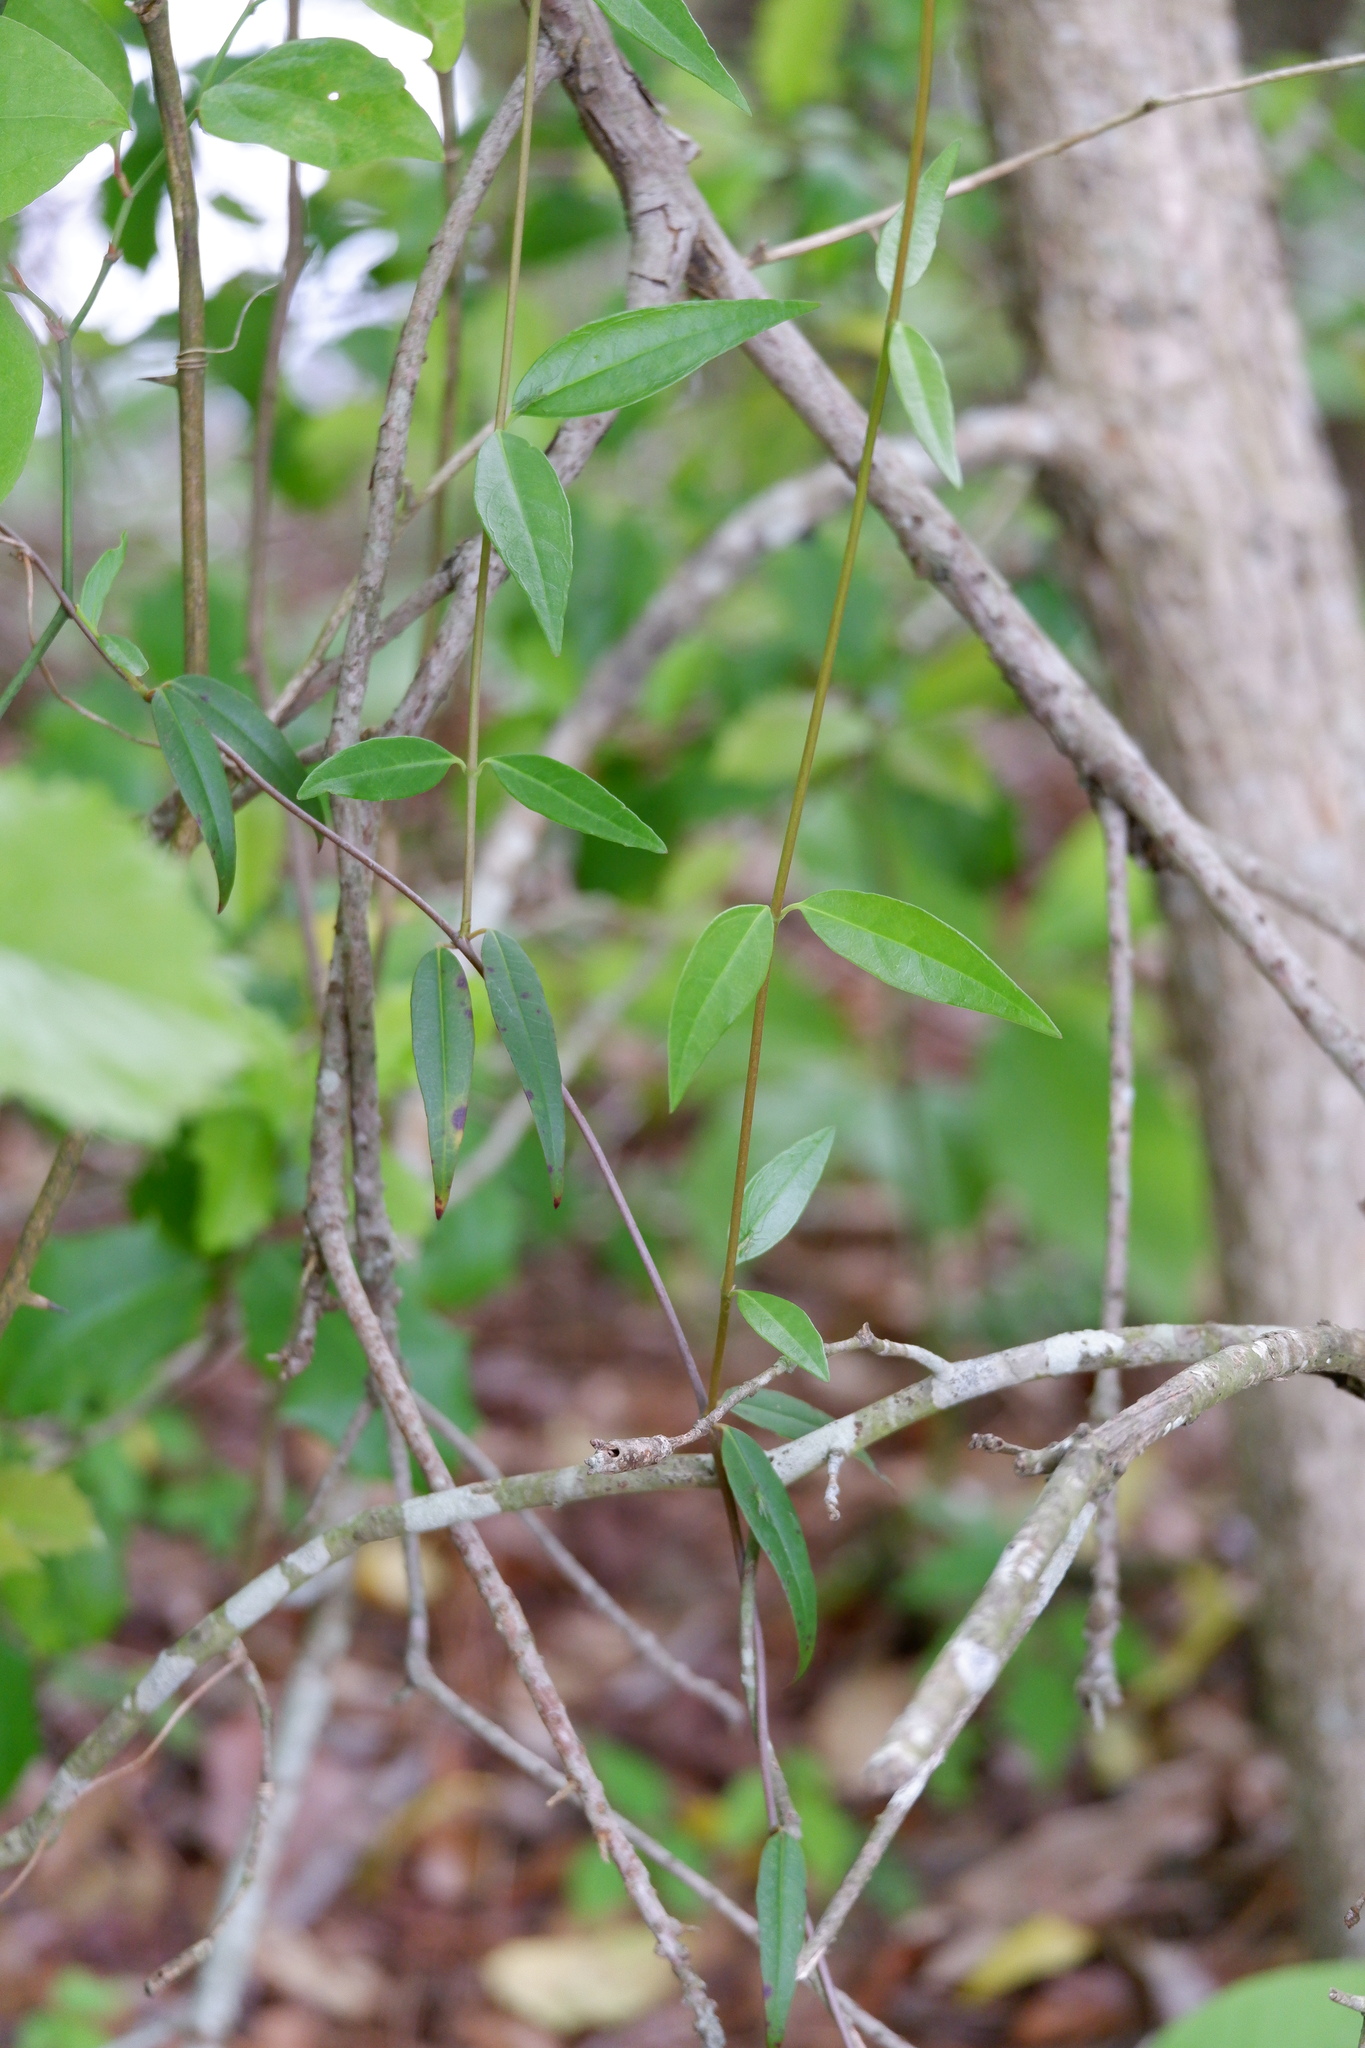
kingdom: Plantae
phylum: Tracheophyta
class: Magnoliopsida
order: Gentianales
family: Gelsemiaceae
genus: Gelsemium
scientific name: Gelsemium sempervirens
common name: Carolina-jasmine
